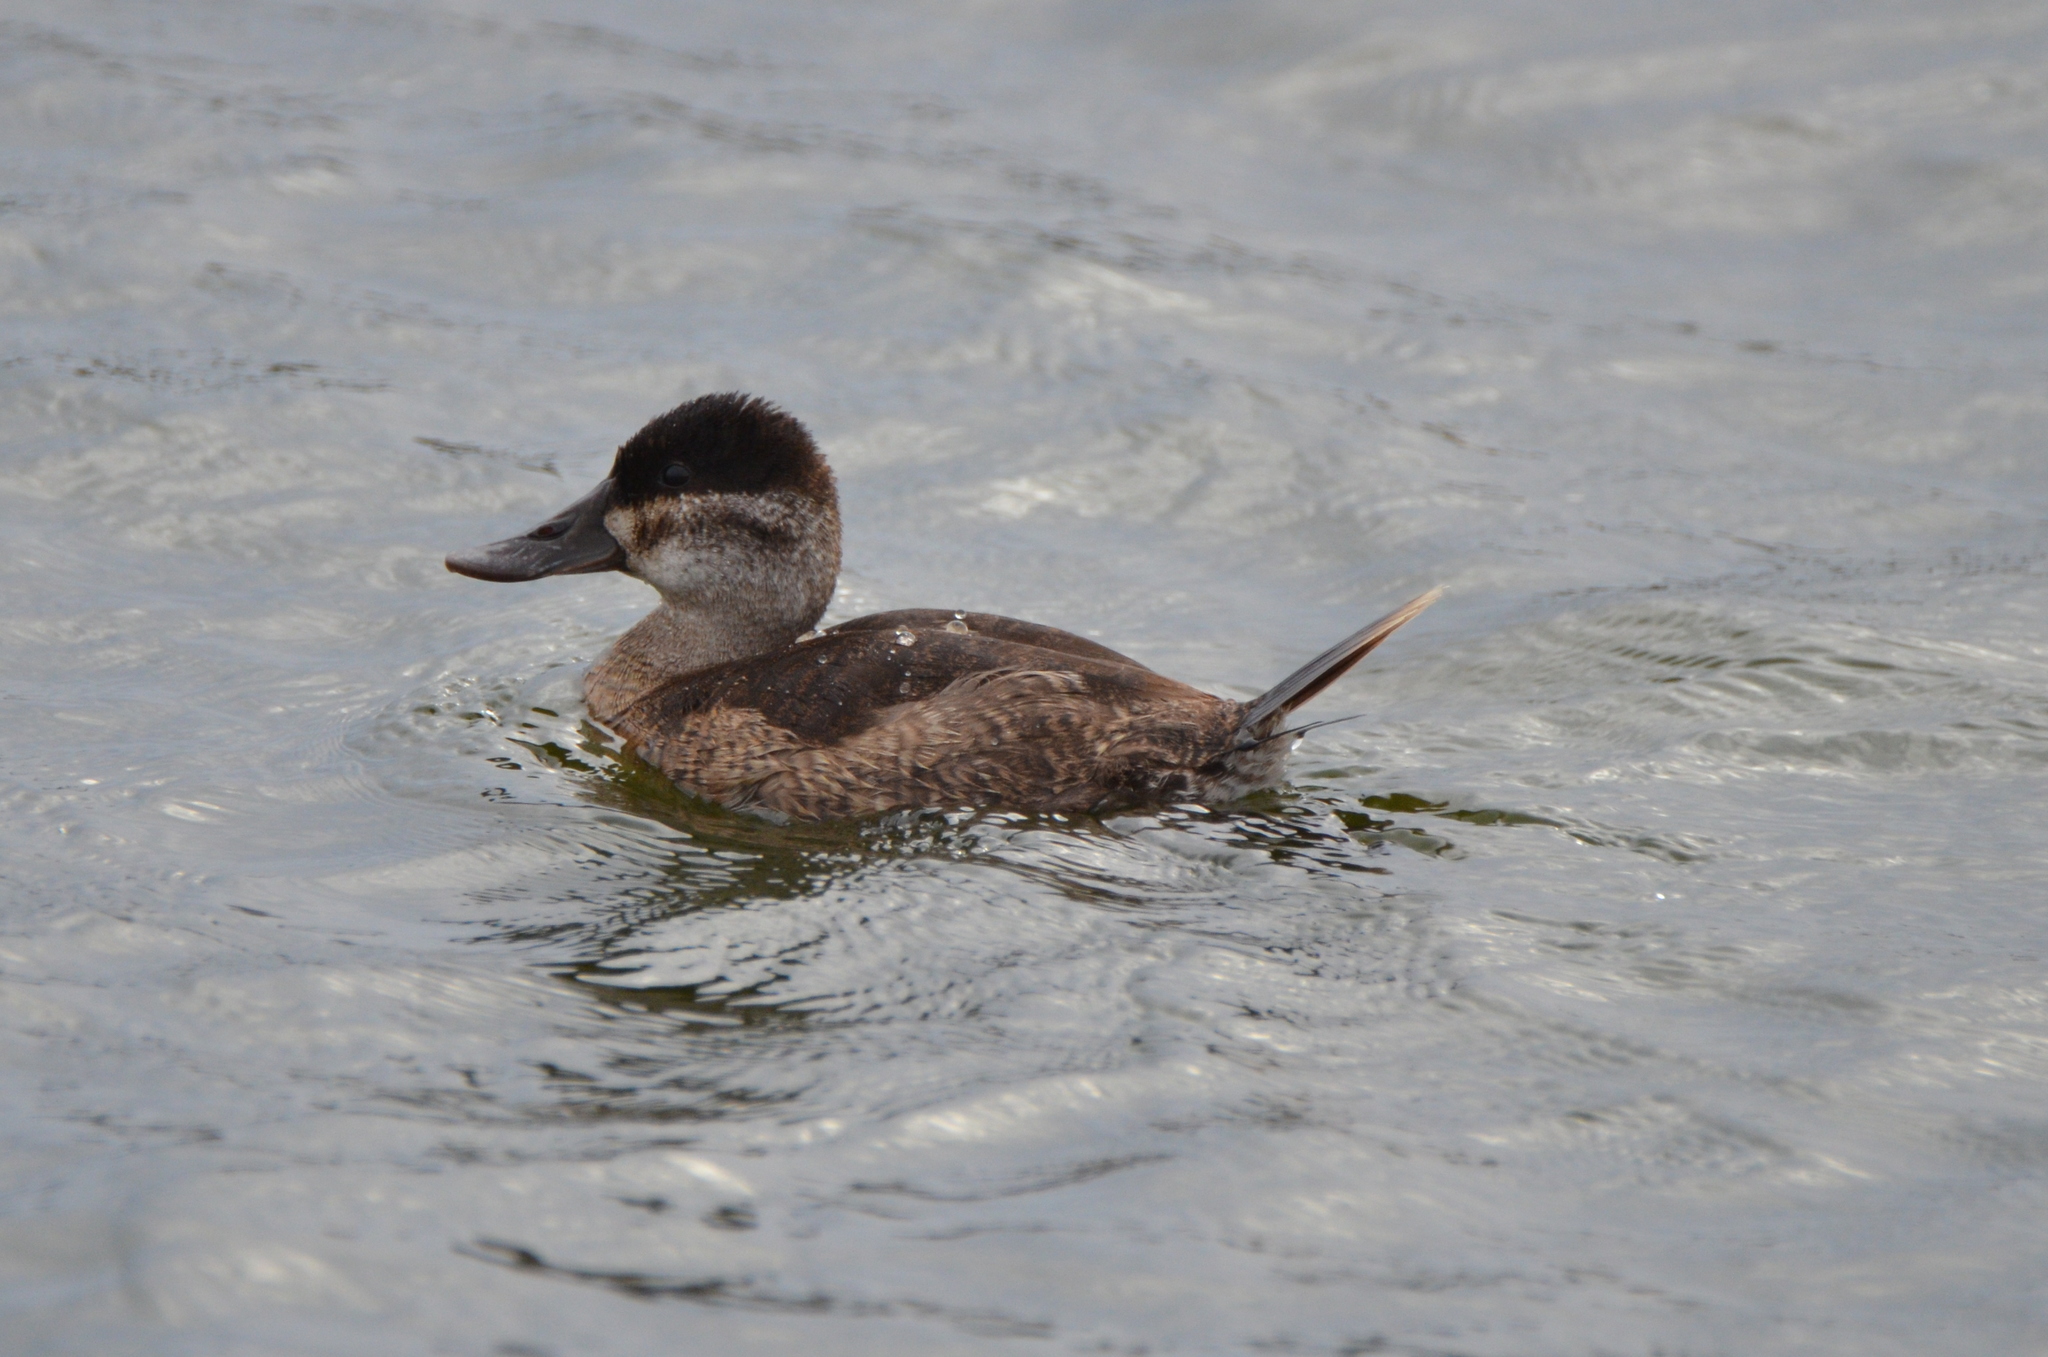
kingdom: Animalia
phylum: Chordata
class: Aves
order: Anseriformes
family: Anatidae
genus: Oxyura
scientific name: Oxyura jamaicensis
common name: Ruddy duck
